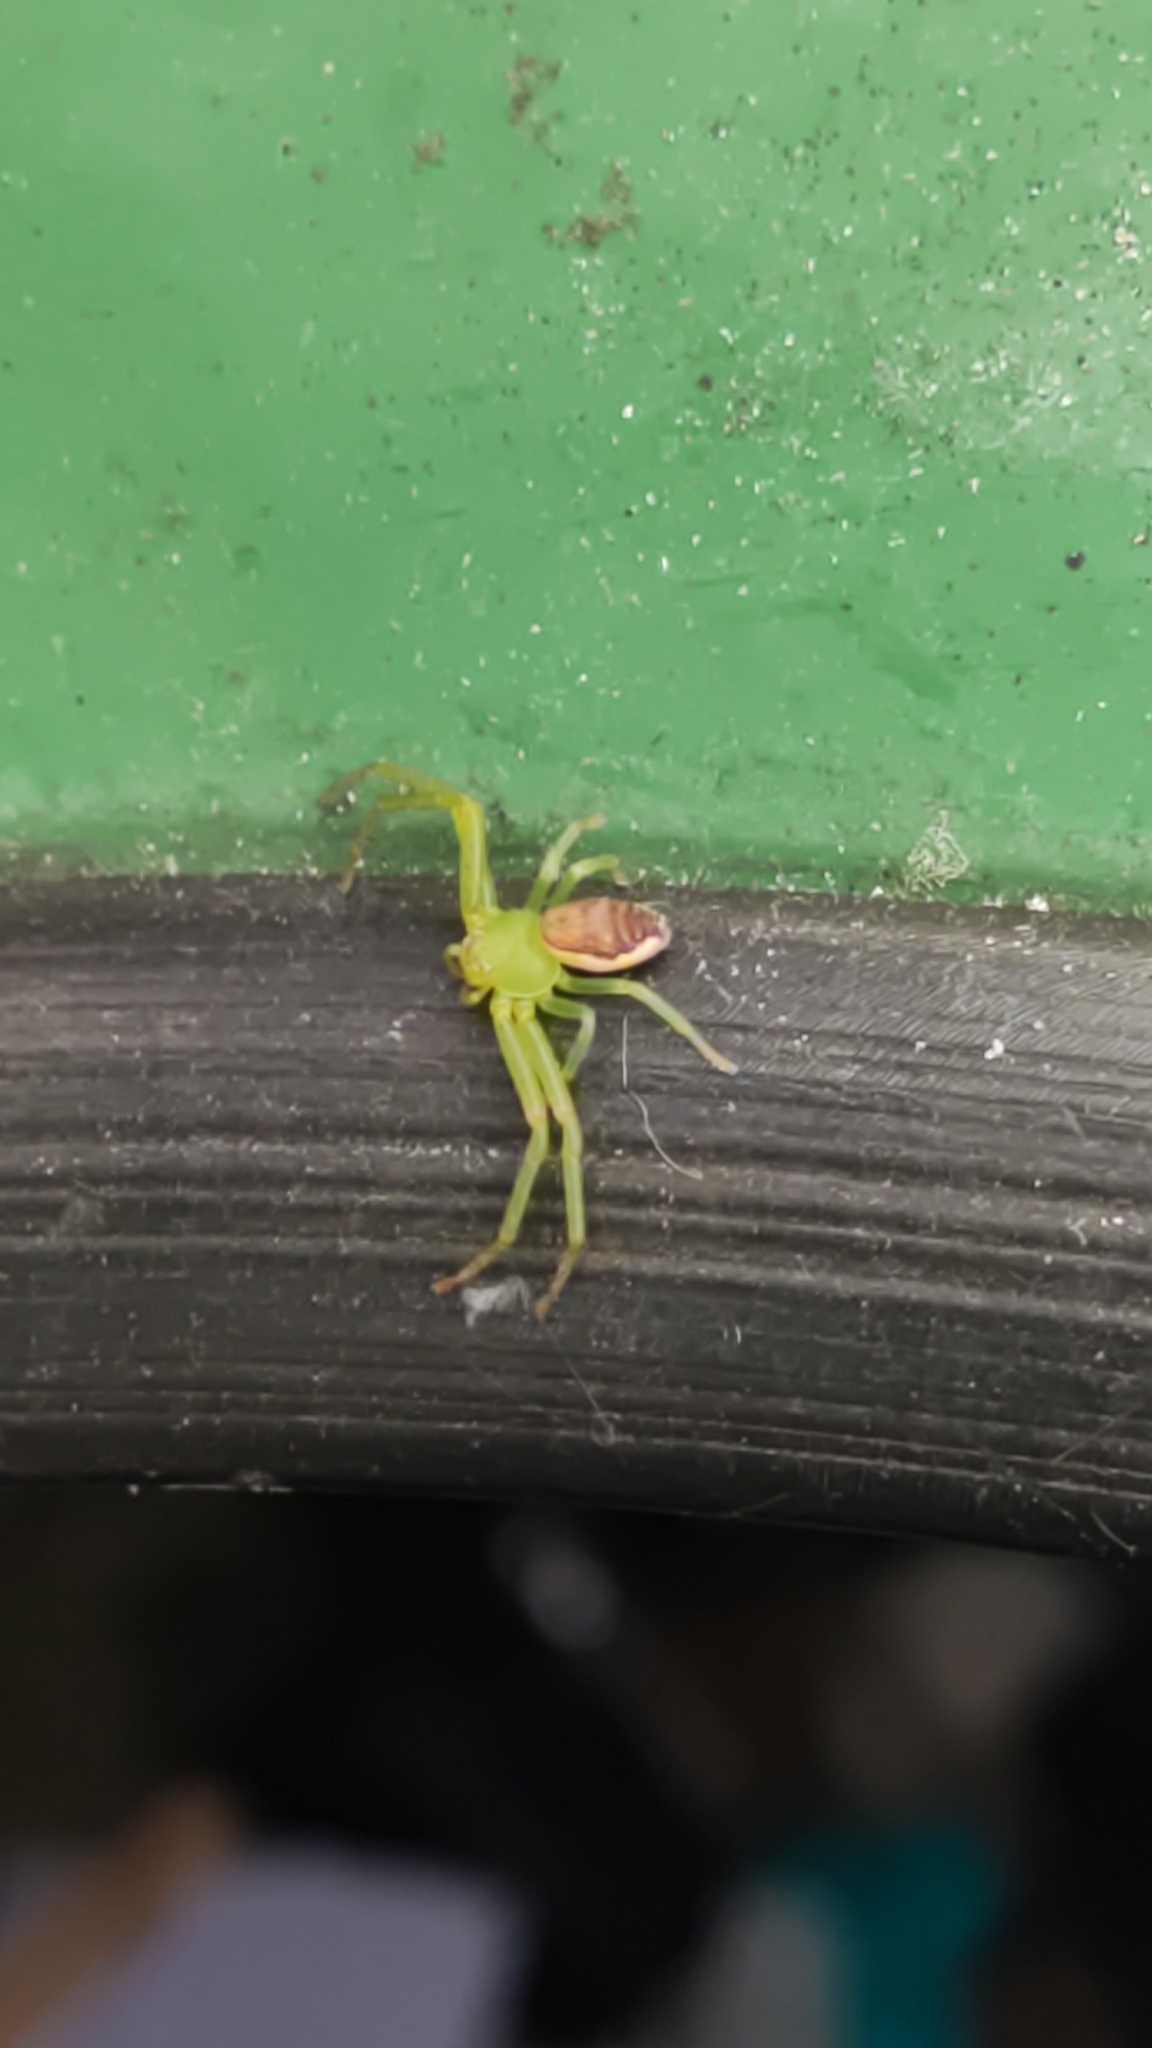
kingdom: Animalia
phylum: Arthropoda
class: Arachnida
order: Araneae
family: Thomisidae
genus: Diaea
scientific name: Diaea dorsata
